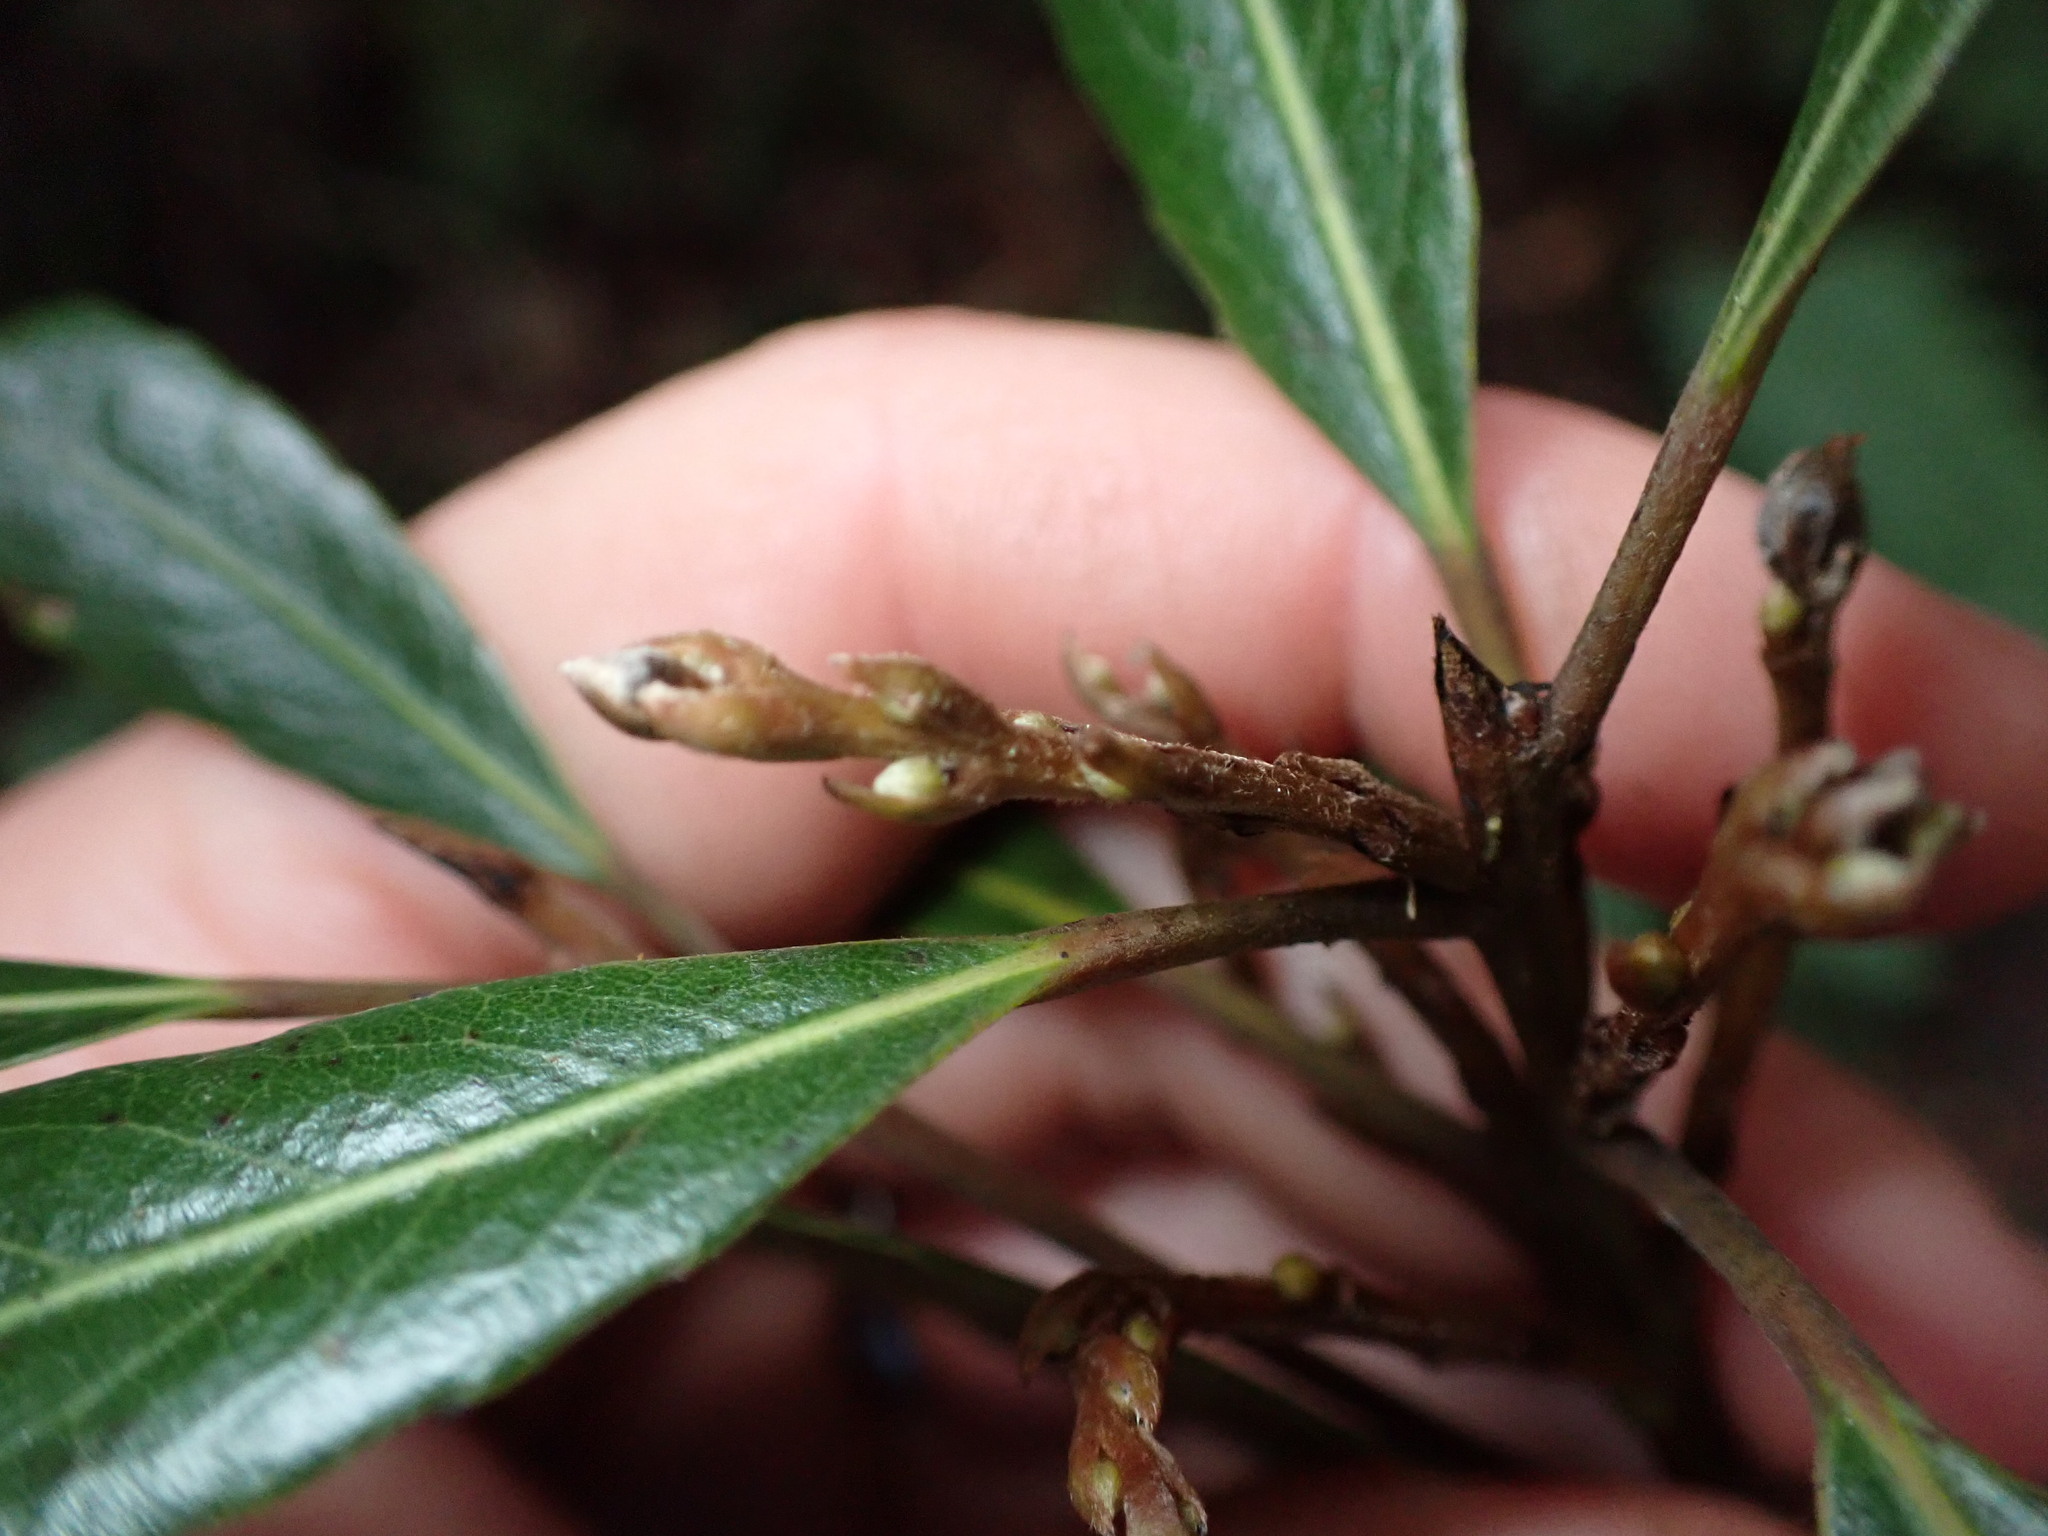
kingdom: Plantae
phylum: Tracheophyta
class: Magnoliopsida
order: Oxalidales
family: Elaeocarpaceae
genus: Elaeocarpus
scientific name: Elaeocarpus dentatus
